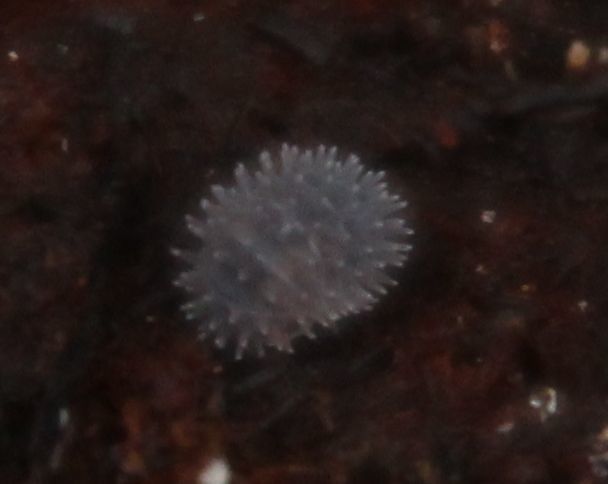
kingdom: Animalia
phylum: Arthropoda
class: Malacostraca
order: Isopoda
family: Armadillidae
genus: Pseudolaureola
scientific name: Pseudolaureola wilsmorei
